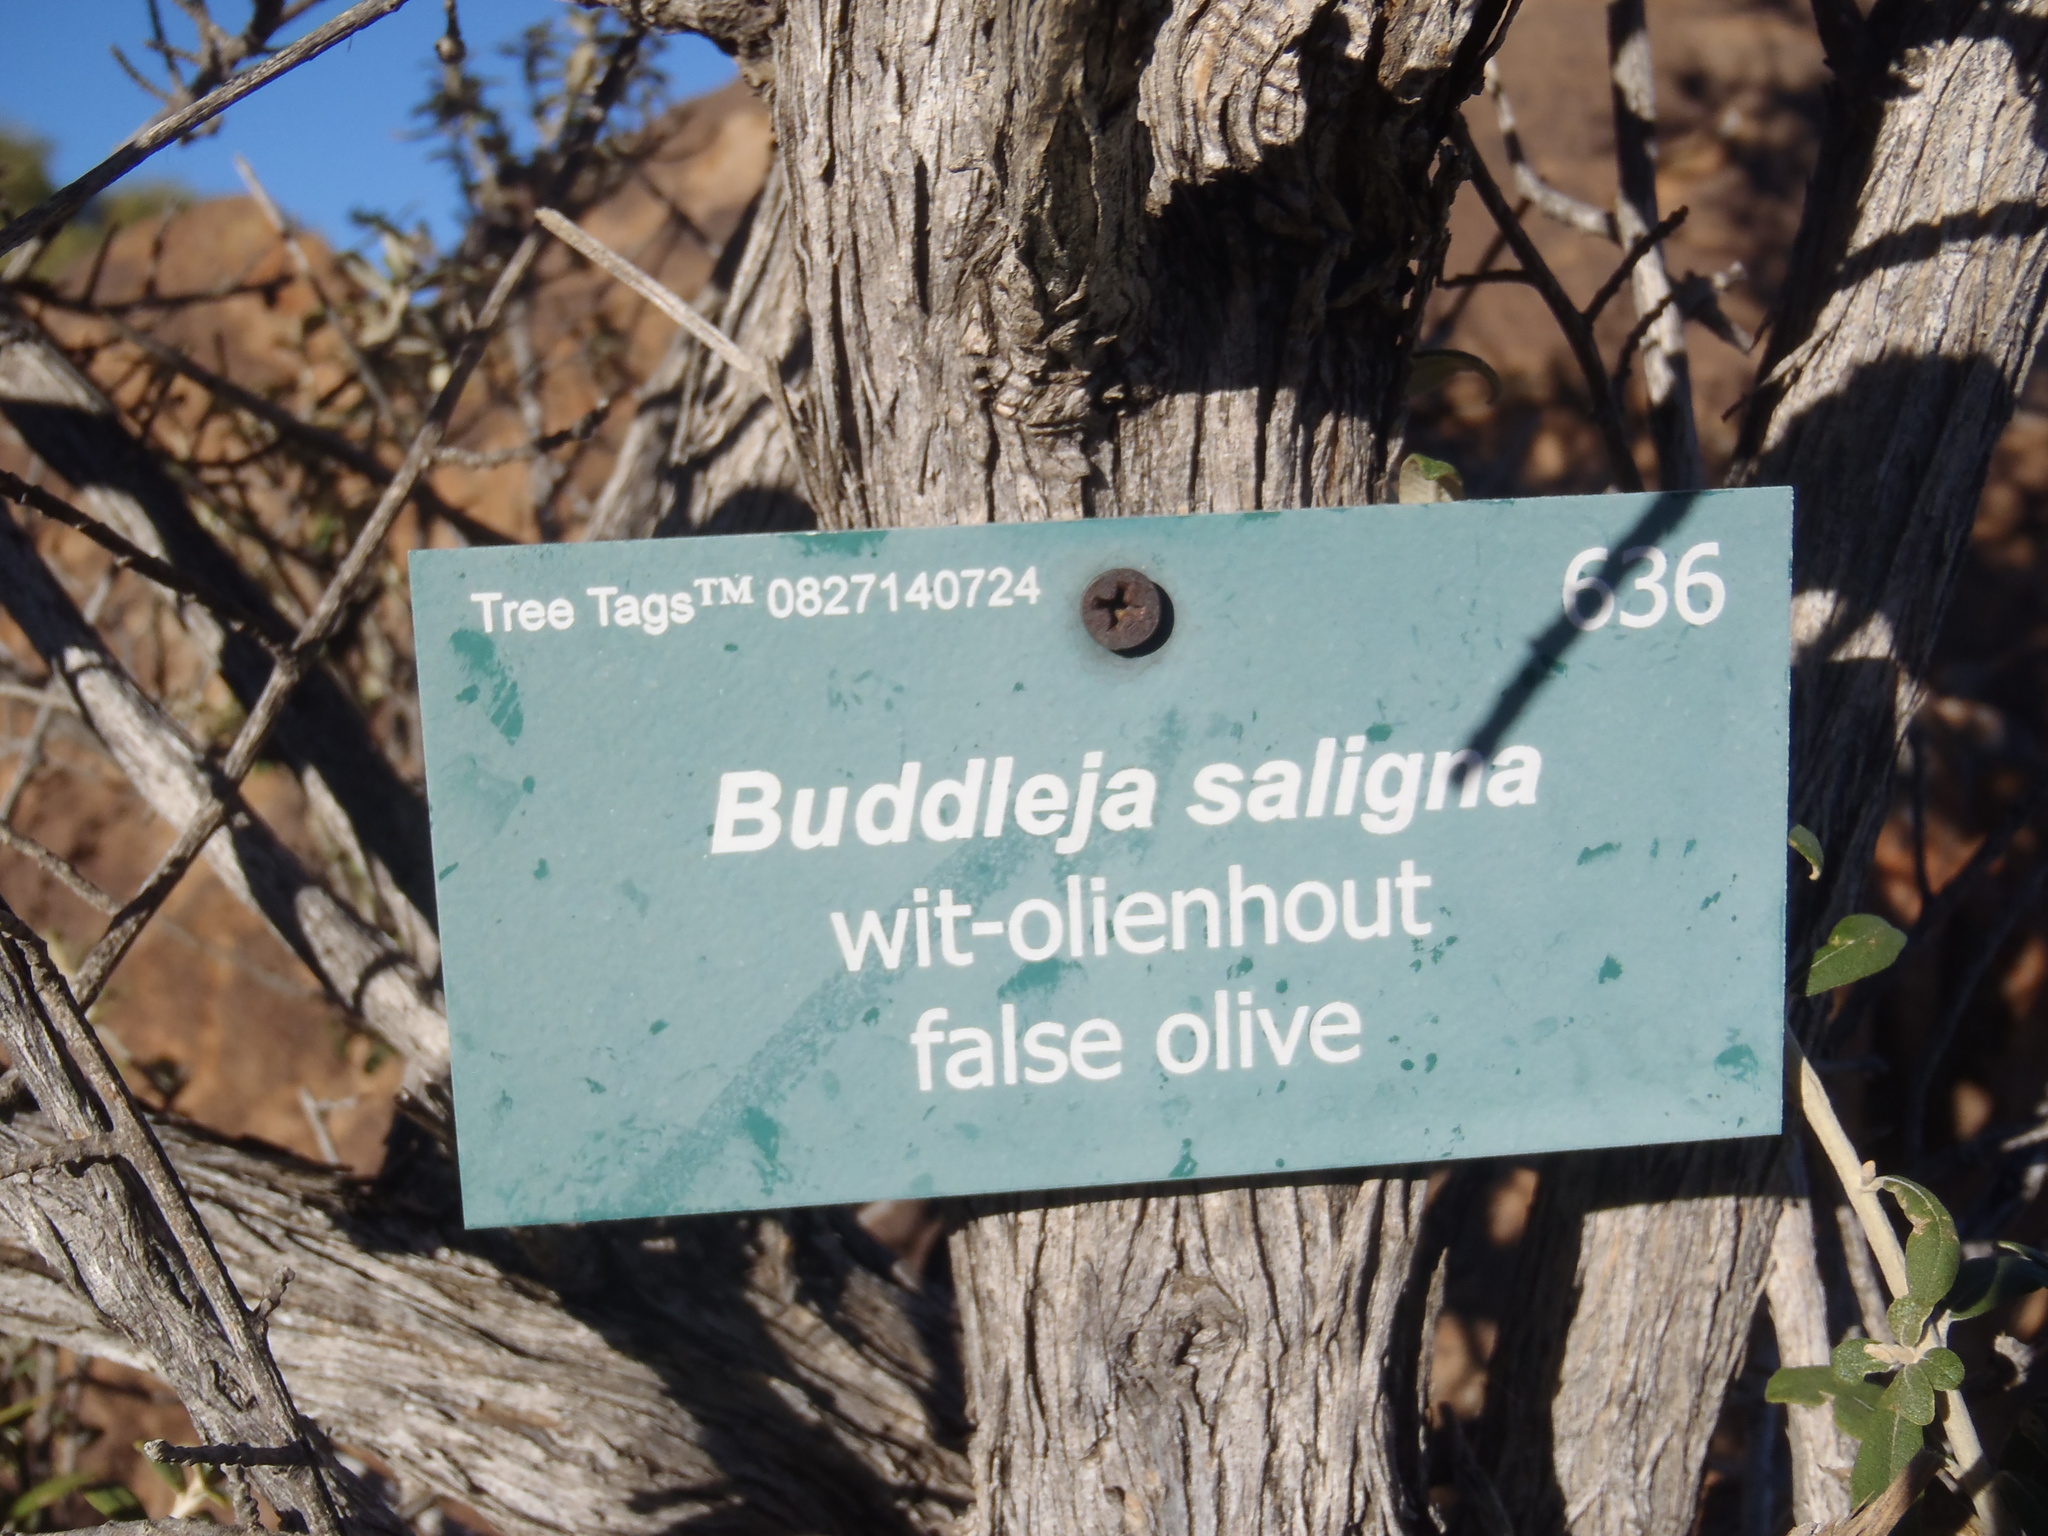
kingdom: Plantae
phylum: Tracheophyta
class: Magnoliopsida
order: Asterales
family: Asteraceae
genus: Tarchonanthus
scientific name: Tarchonanthus camphoratus
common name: Camphorwood
